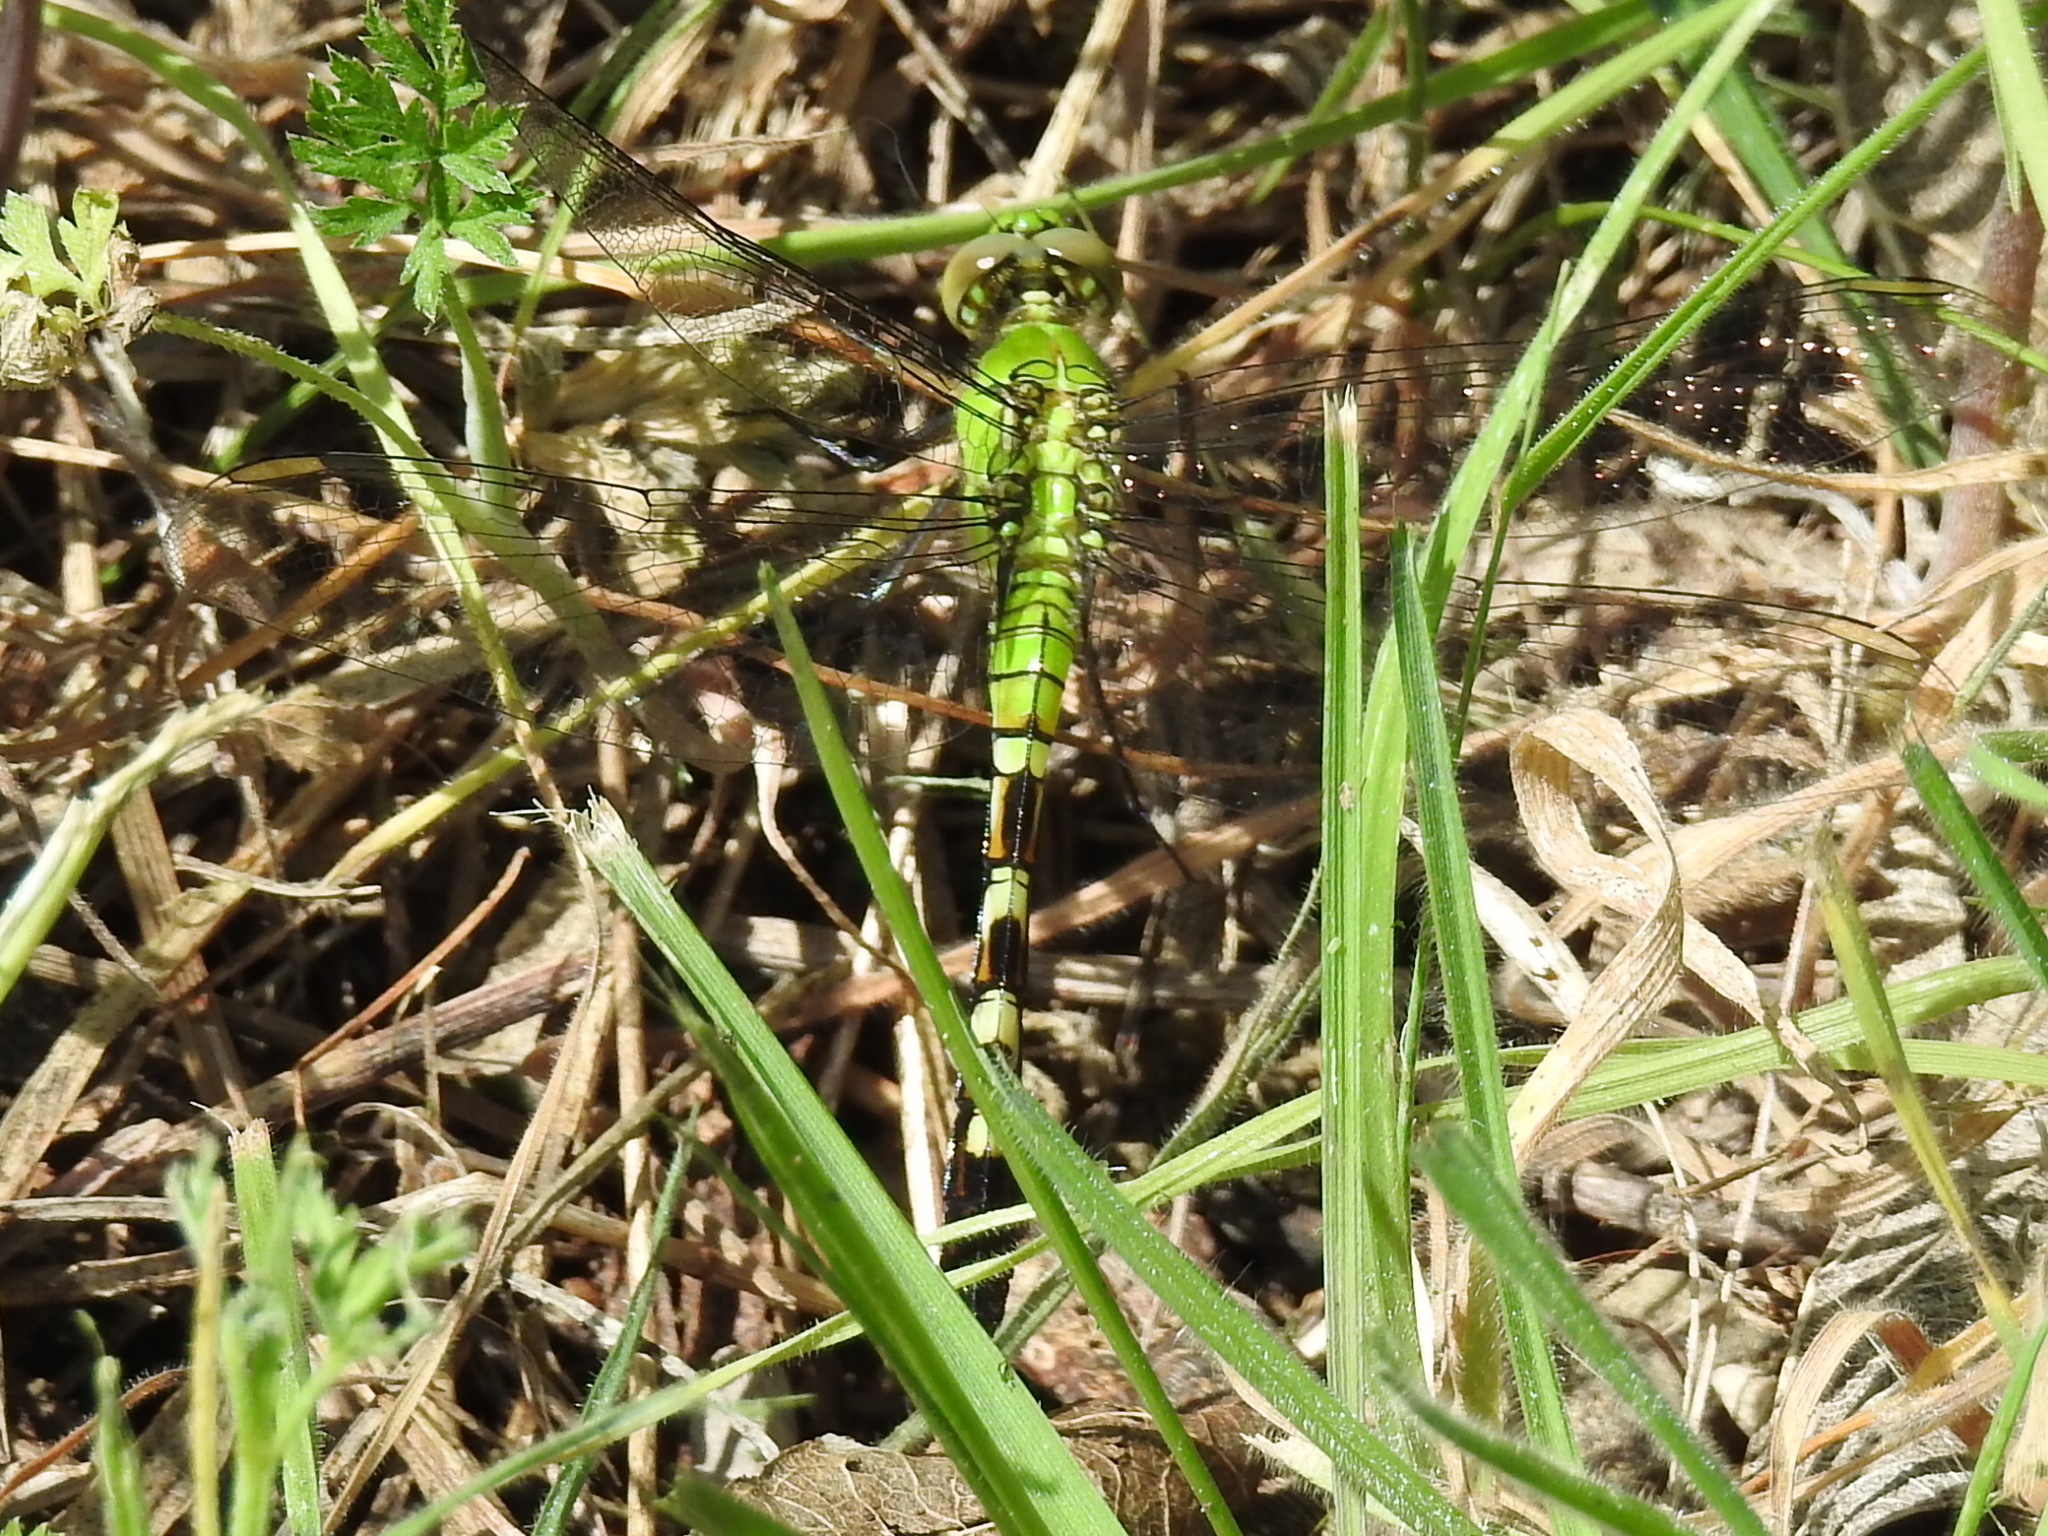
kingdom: Animalia
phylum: Arthropoda
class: Insecta
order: Odonata
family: Libellulidae
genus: Erythemis
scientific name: Erythemis simplicicollis
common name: Eastern pondhawk
